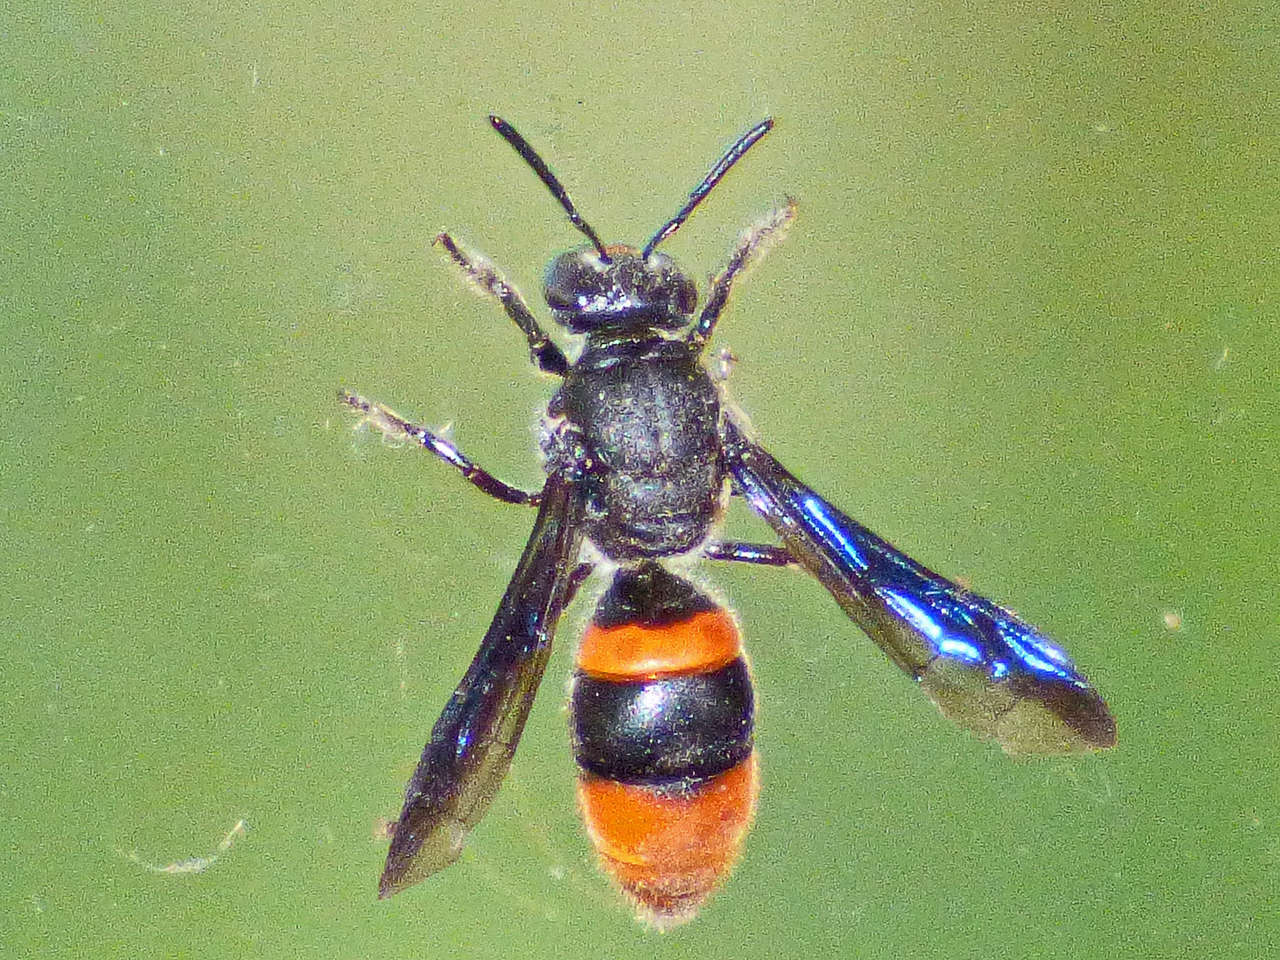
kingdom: Animalia
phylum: Arthropoda
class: Insecta
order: Hymenoptera
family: Colletidae
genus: Hyleoides
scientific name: Hyleoides concinna
